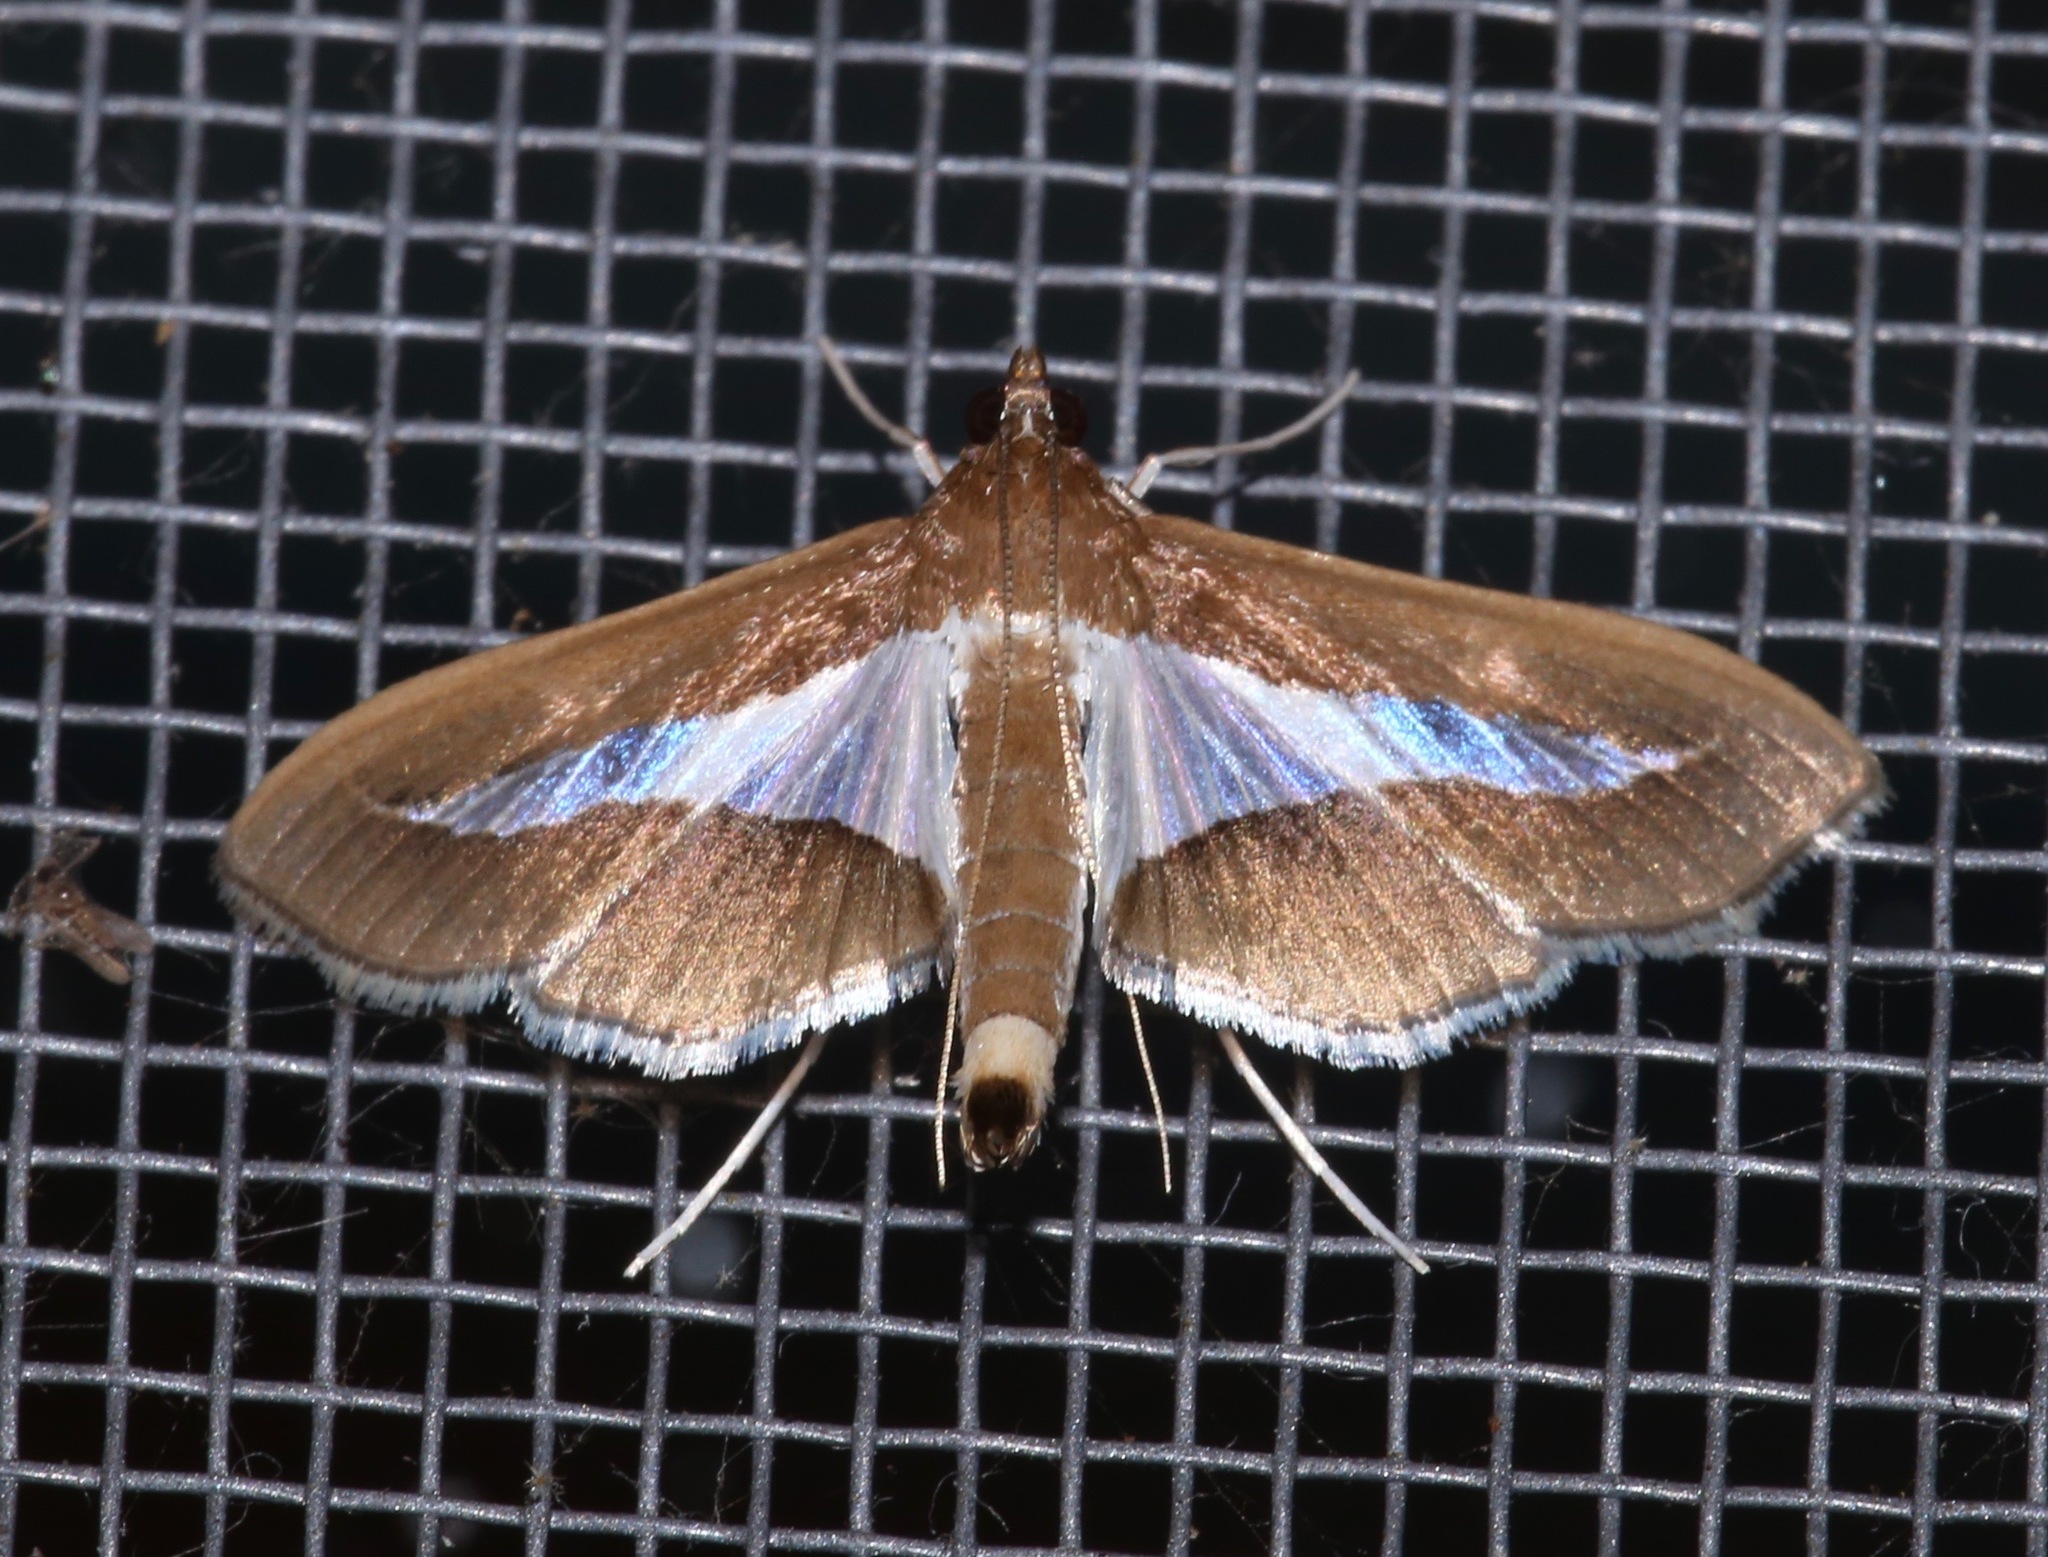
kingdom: Animalia
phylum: Arthropoda
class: Insecta
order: Lepidoptera
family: Crambidae
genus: Cryptographis
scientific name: Cryptographis infimalis
